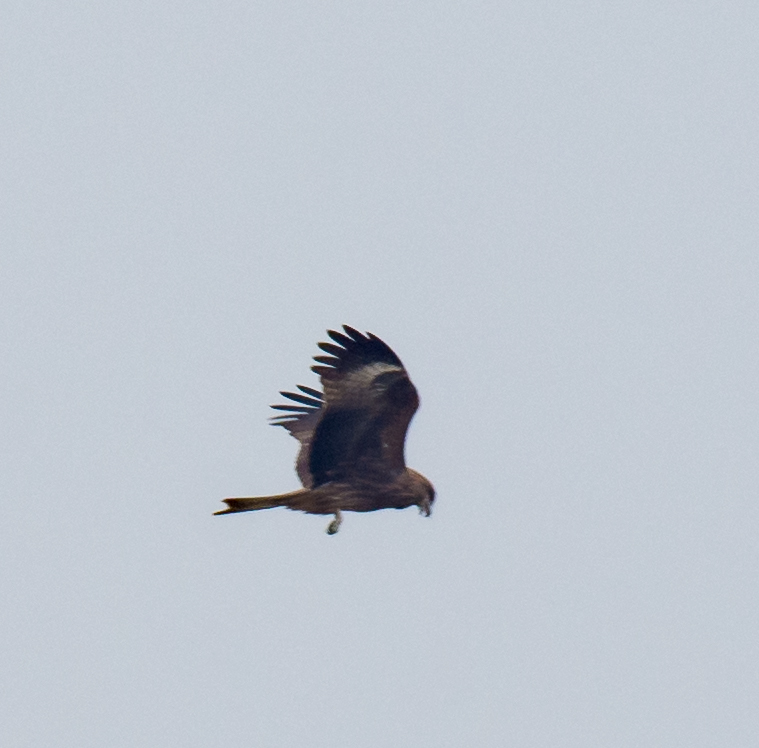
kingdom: Animalia
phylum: Chordata
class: Aves
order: Accipitriformes
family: Accipitridae
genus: Milvus
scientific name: Milvus migrans
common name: Black kite
